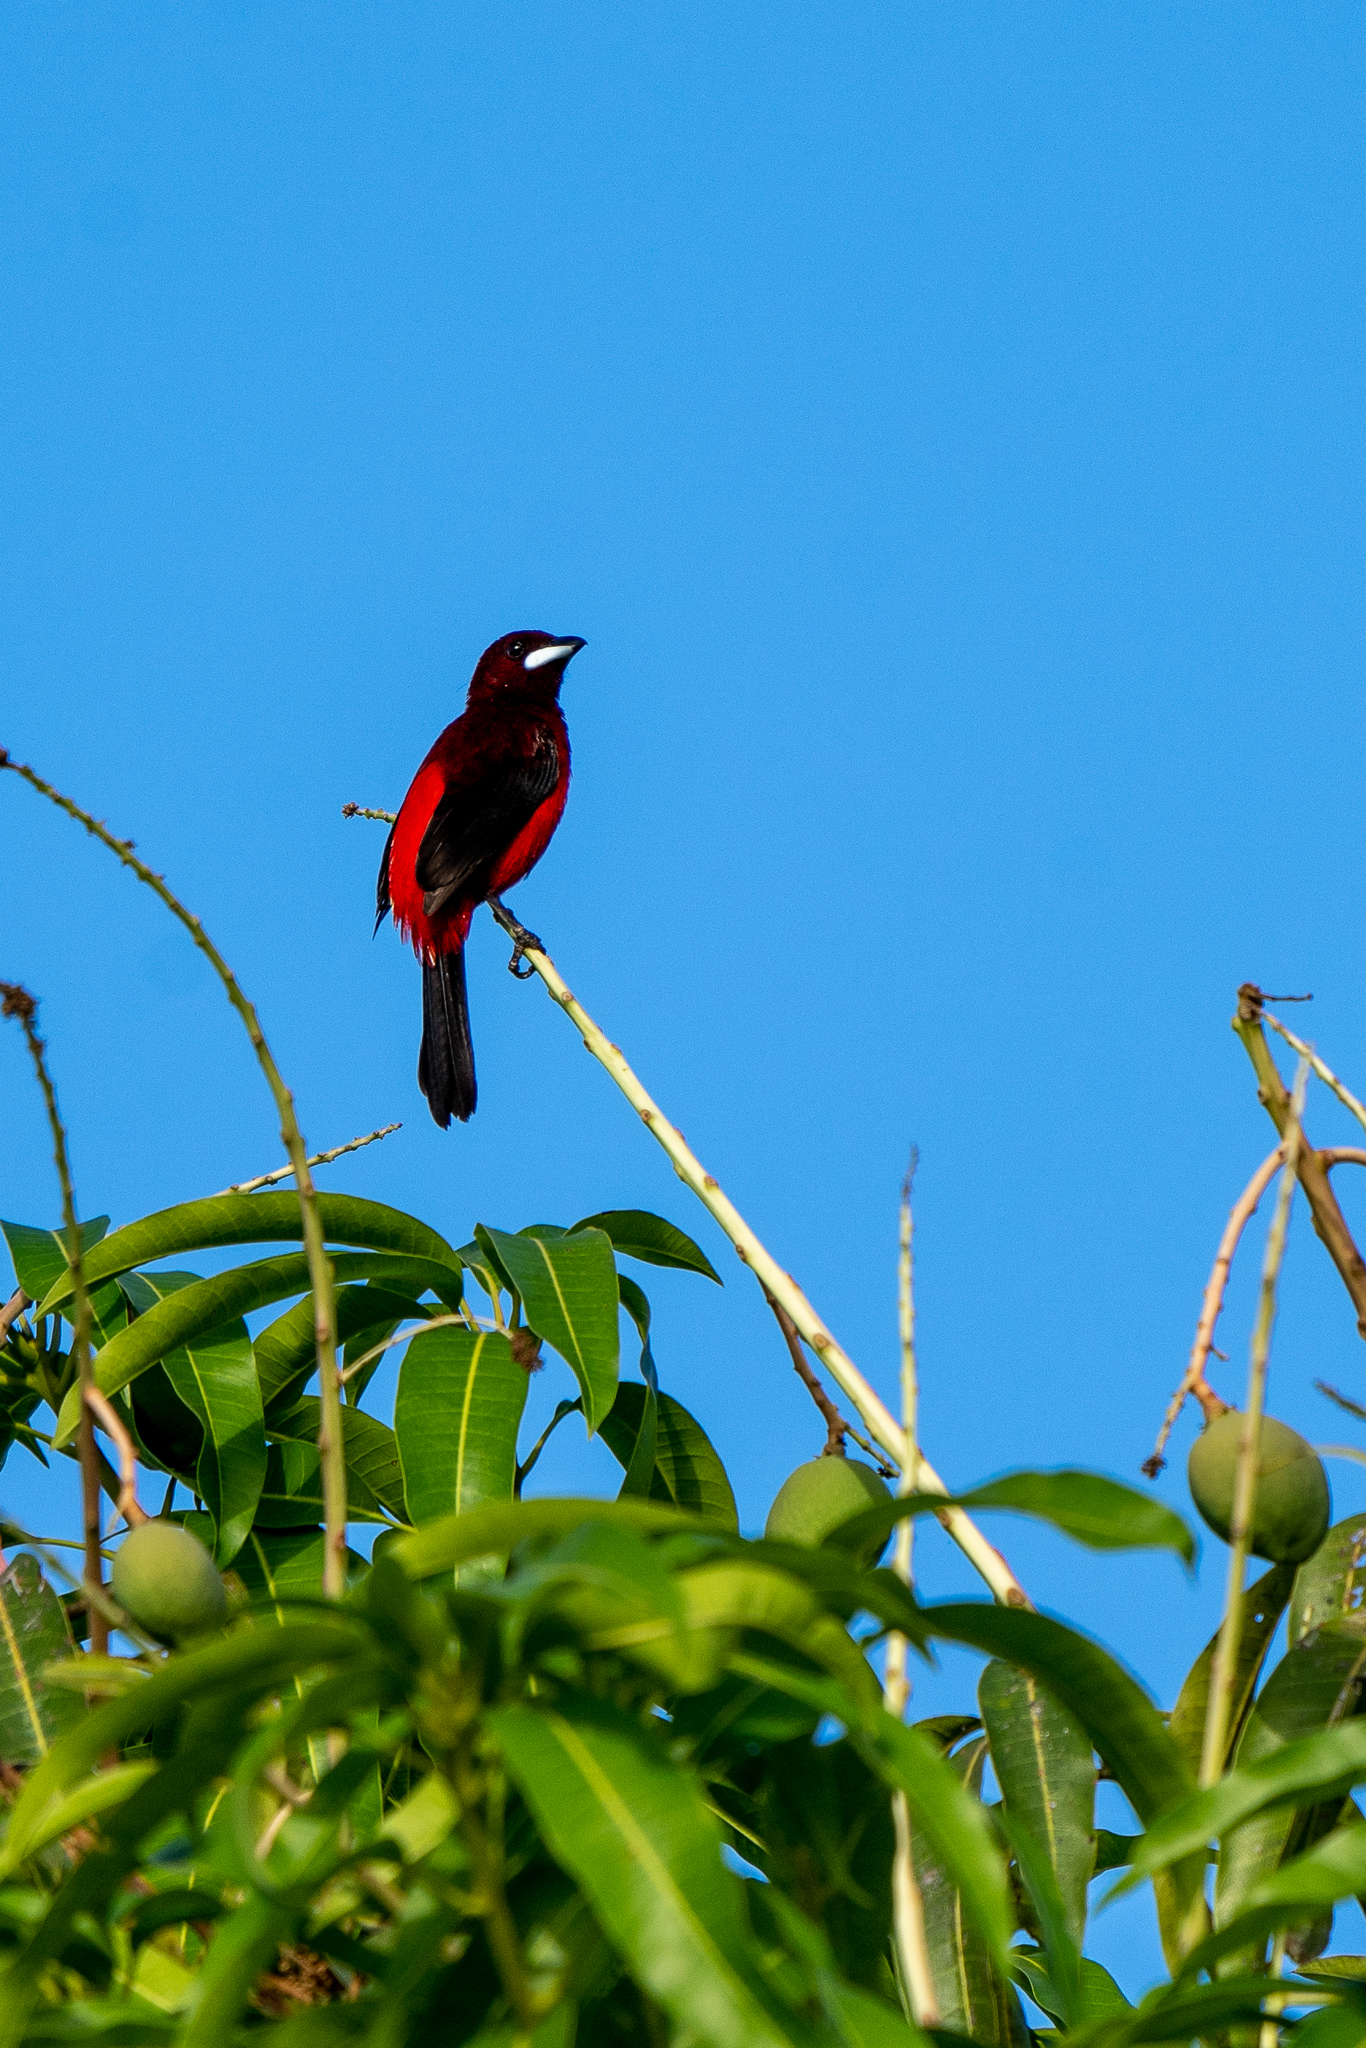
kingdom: Animalia
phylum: Chordata
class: Aves
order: Passeriformes
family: Thraupidae
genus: Ramphocelus
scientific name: Ramphocelus dimidiatus
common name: Crimson-backed tanager
